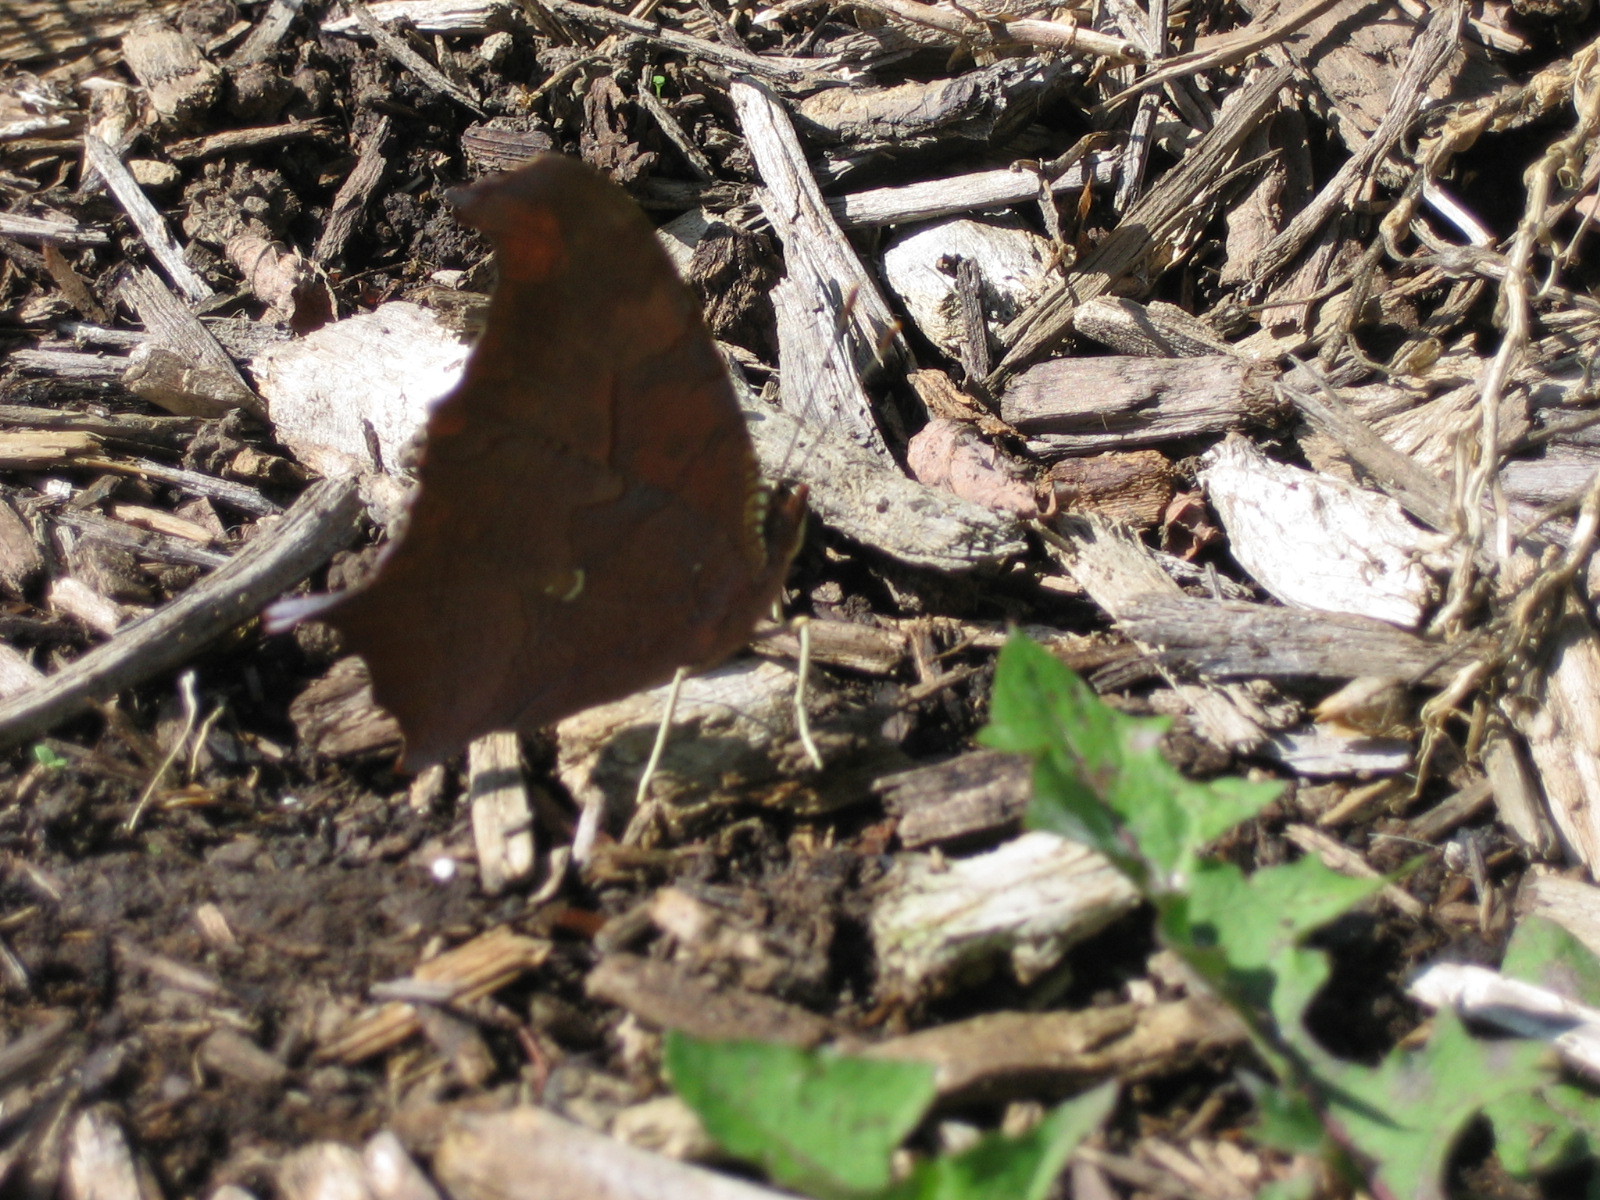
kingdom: Animalia
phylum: Arthropoda
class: Insecta
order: Lepidoptera
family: Nymphalidae
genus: Polygonia
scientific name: Polygonia interrogationis
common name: Question mark
